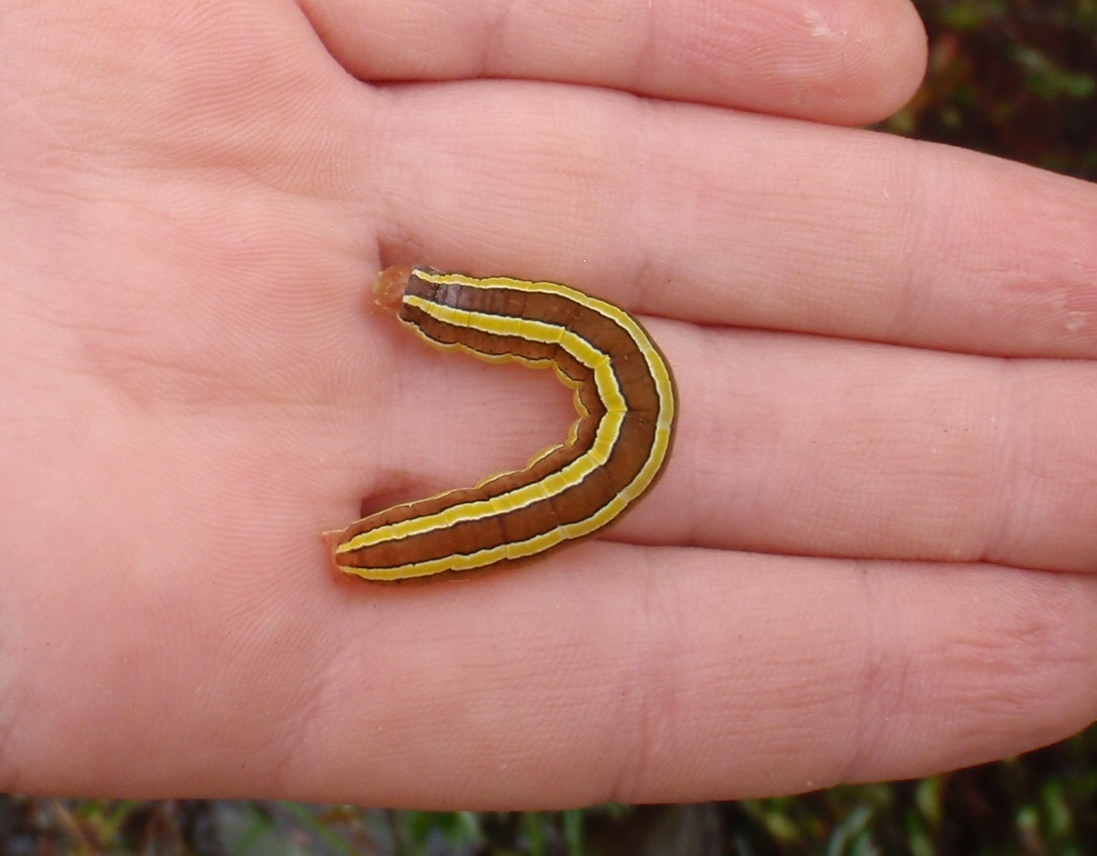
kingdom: Animalia
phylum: Arthropoda
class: Insecta
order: Lepidoptera
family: Noctuidae
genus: Melanchra
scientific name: Melanchra assimilis
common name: Black arches
